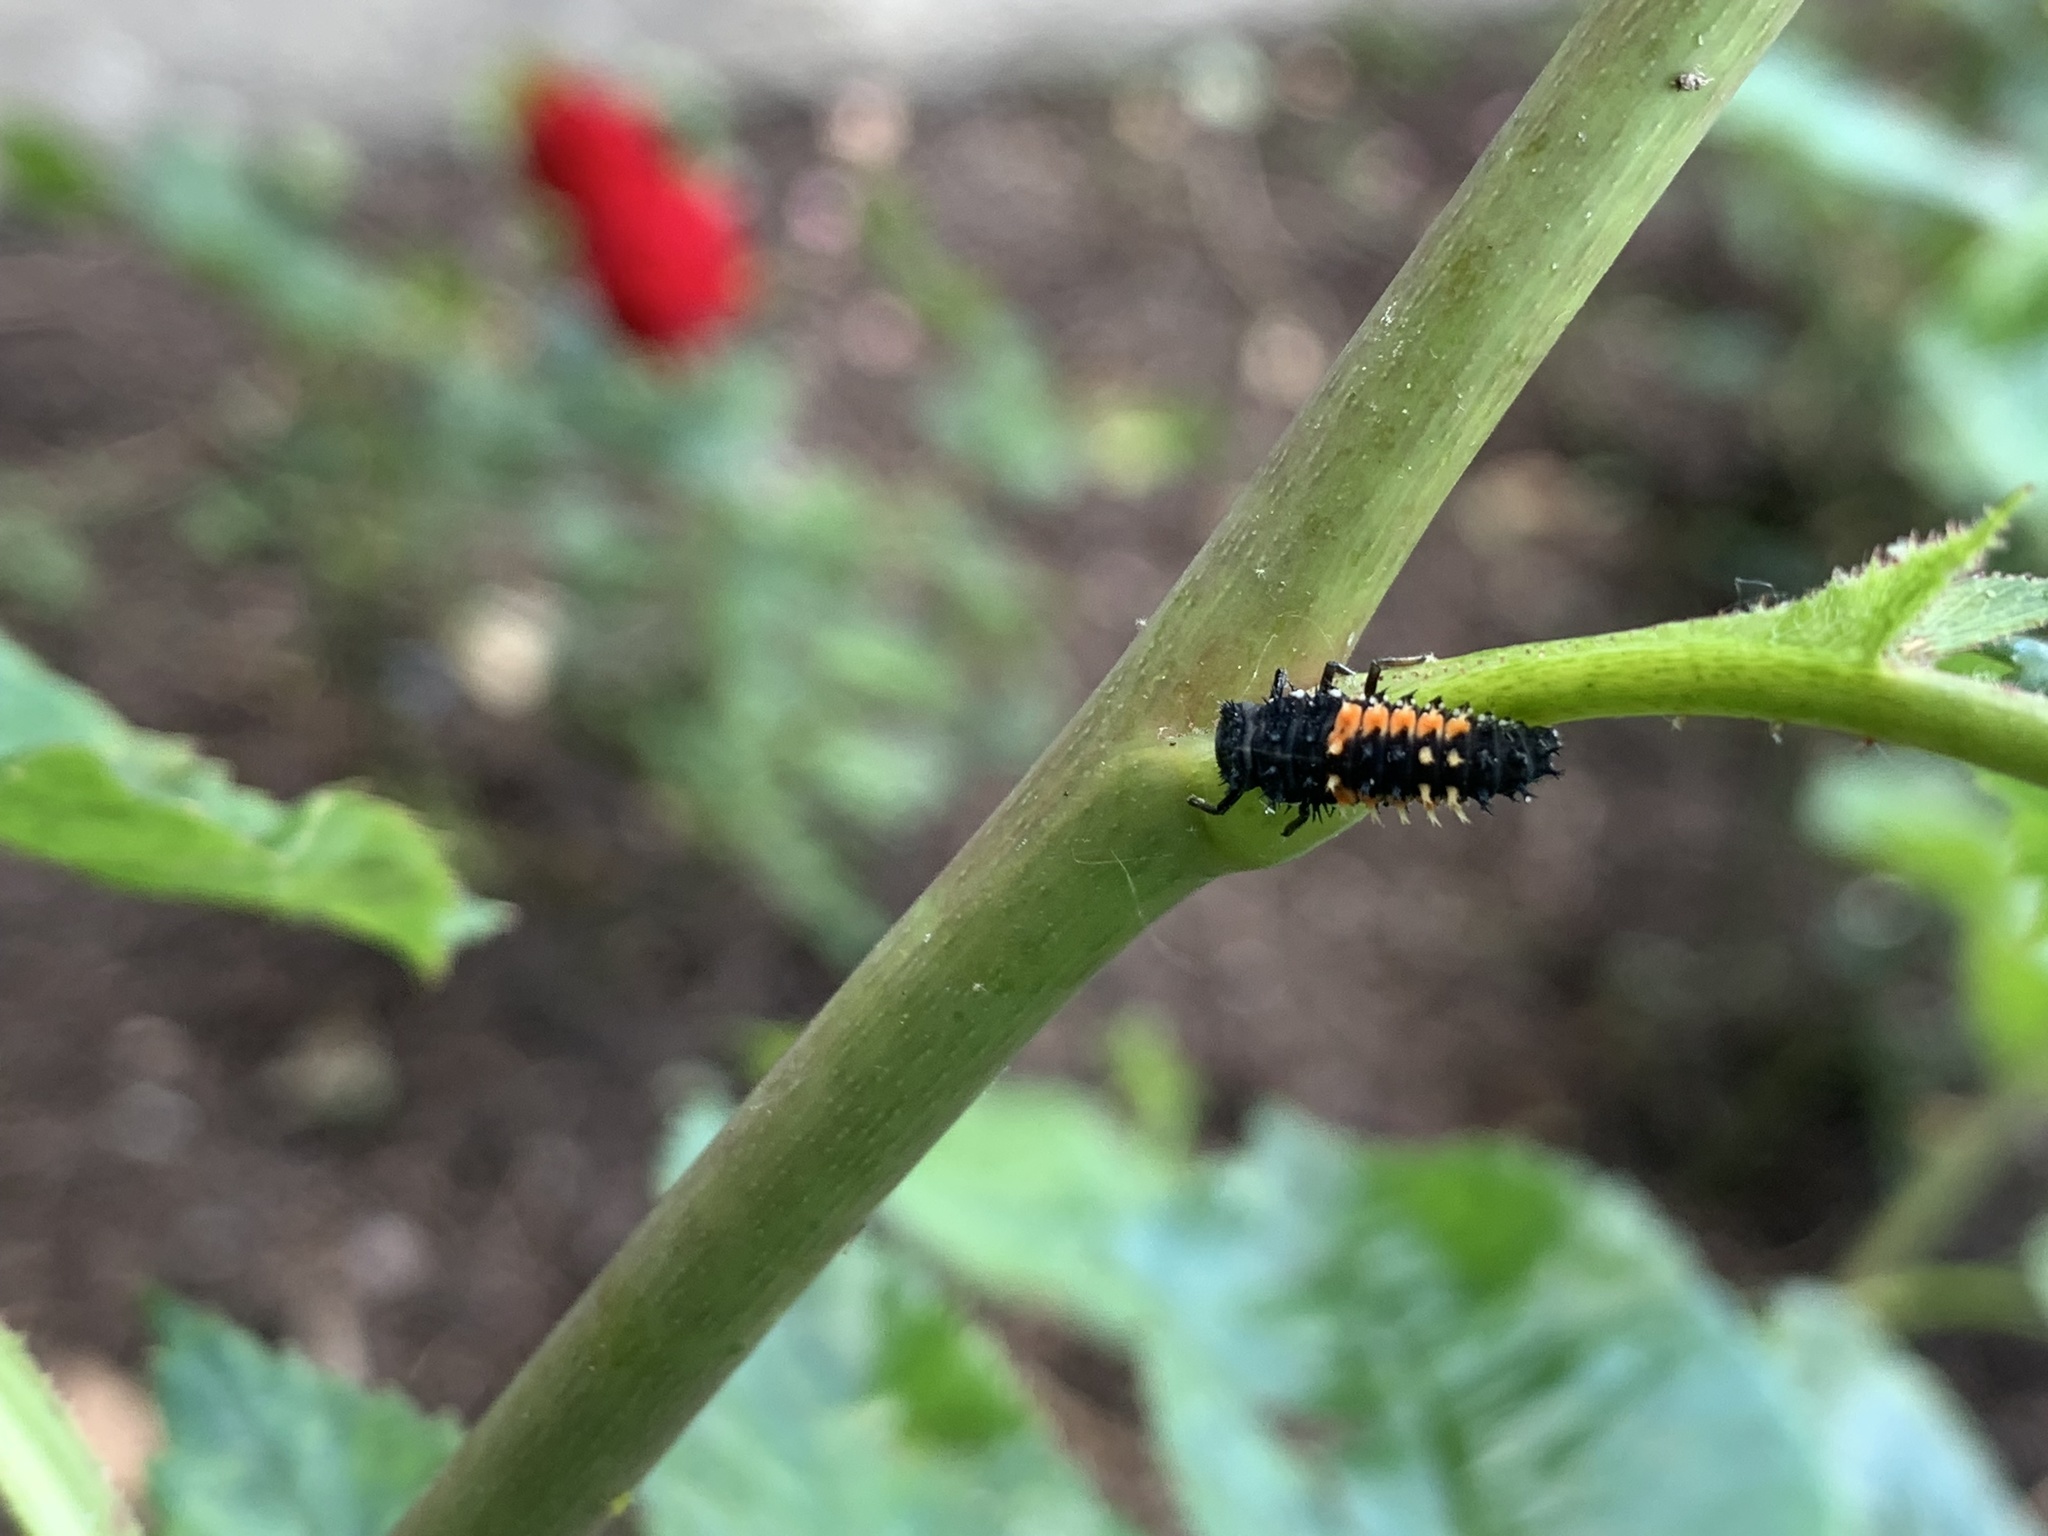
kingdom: Animalia
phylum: Arthropoda
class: Insecta
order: Coleoptera
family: Coccinellidae
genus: Harmonia
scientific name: Harmonia axyridis
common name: Harlequin ladybird
